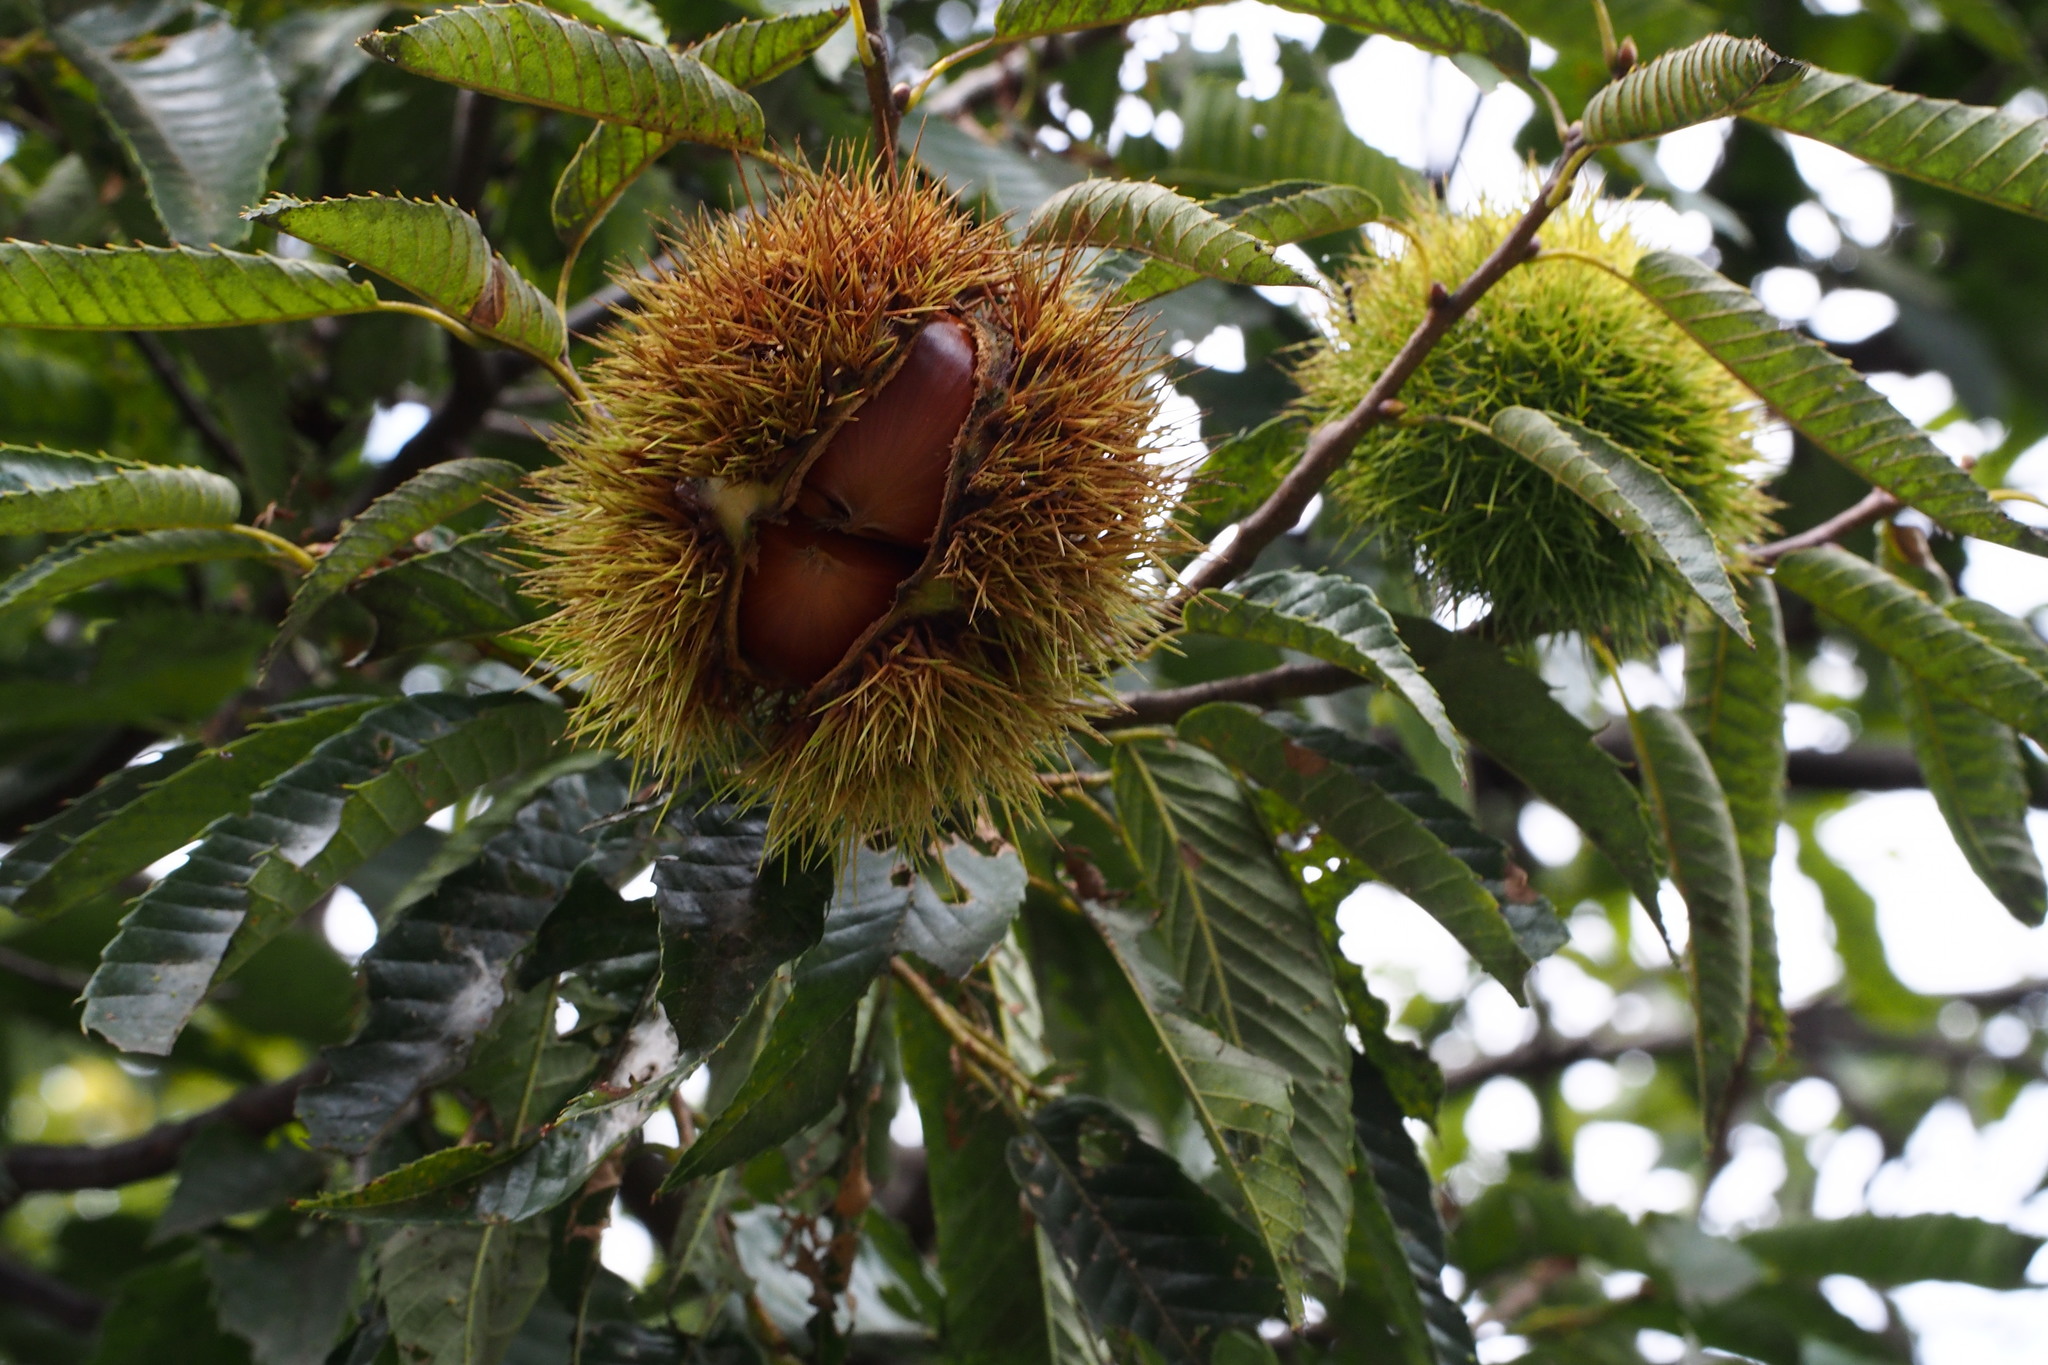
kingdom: Plantae
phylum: Tracheophyta
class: Magnoliopsida
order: Fagales
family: Fagaceae
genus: Castanea
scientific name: Castanea crenata
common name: Japanese chestnut
